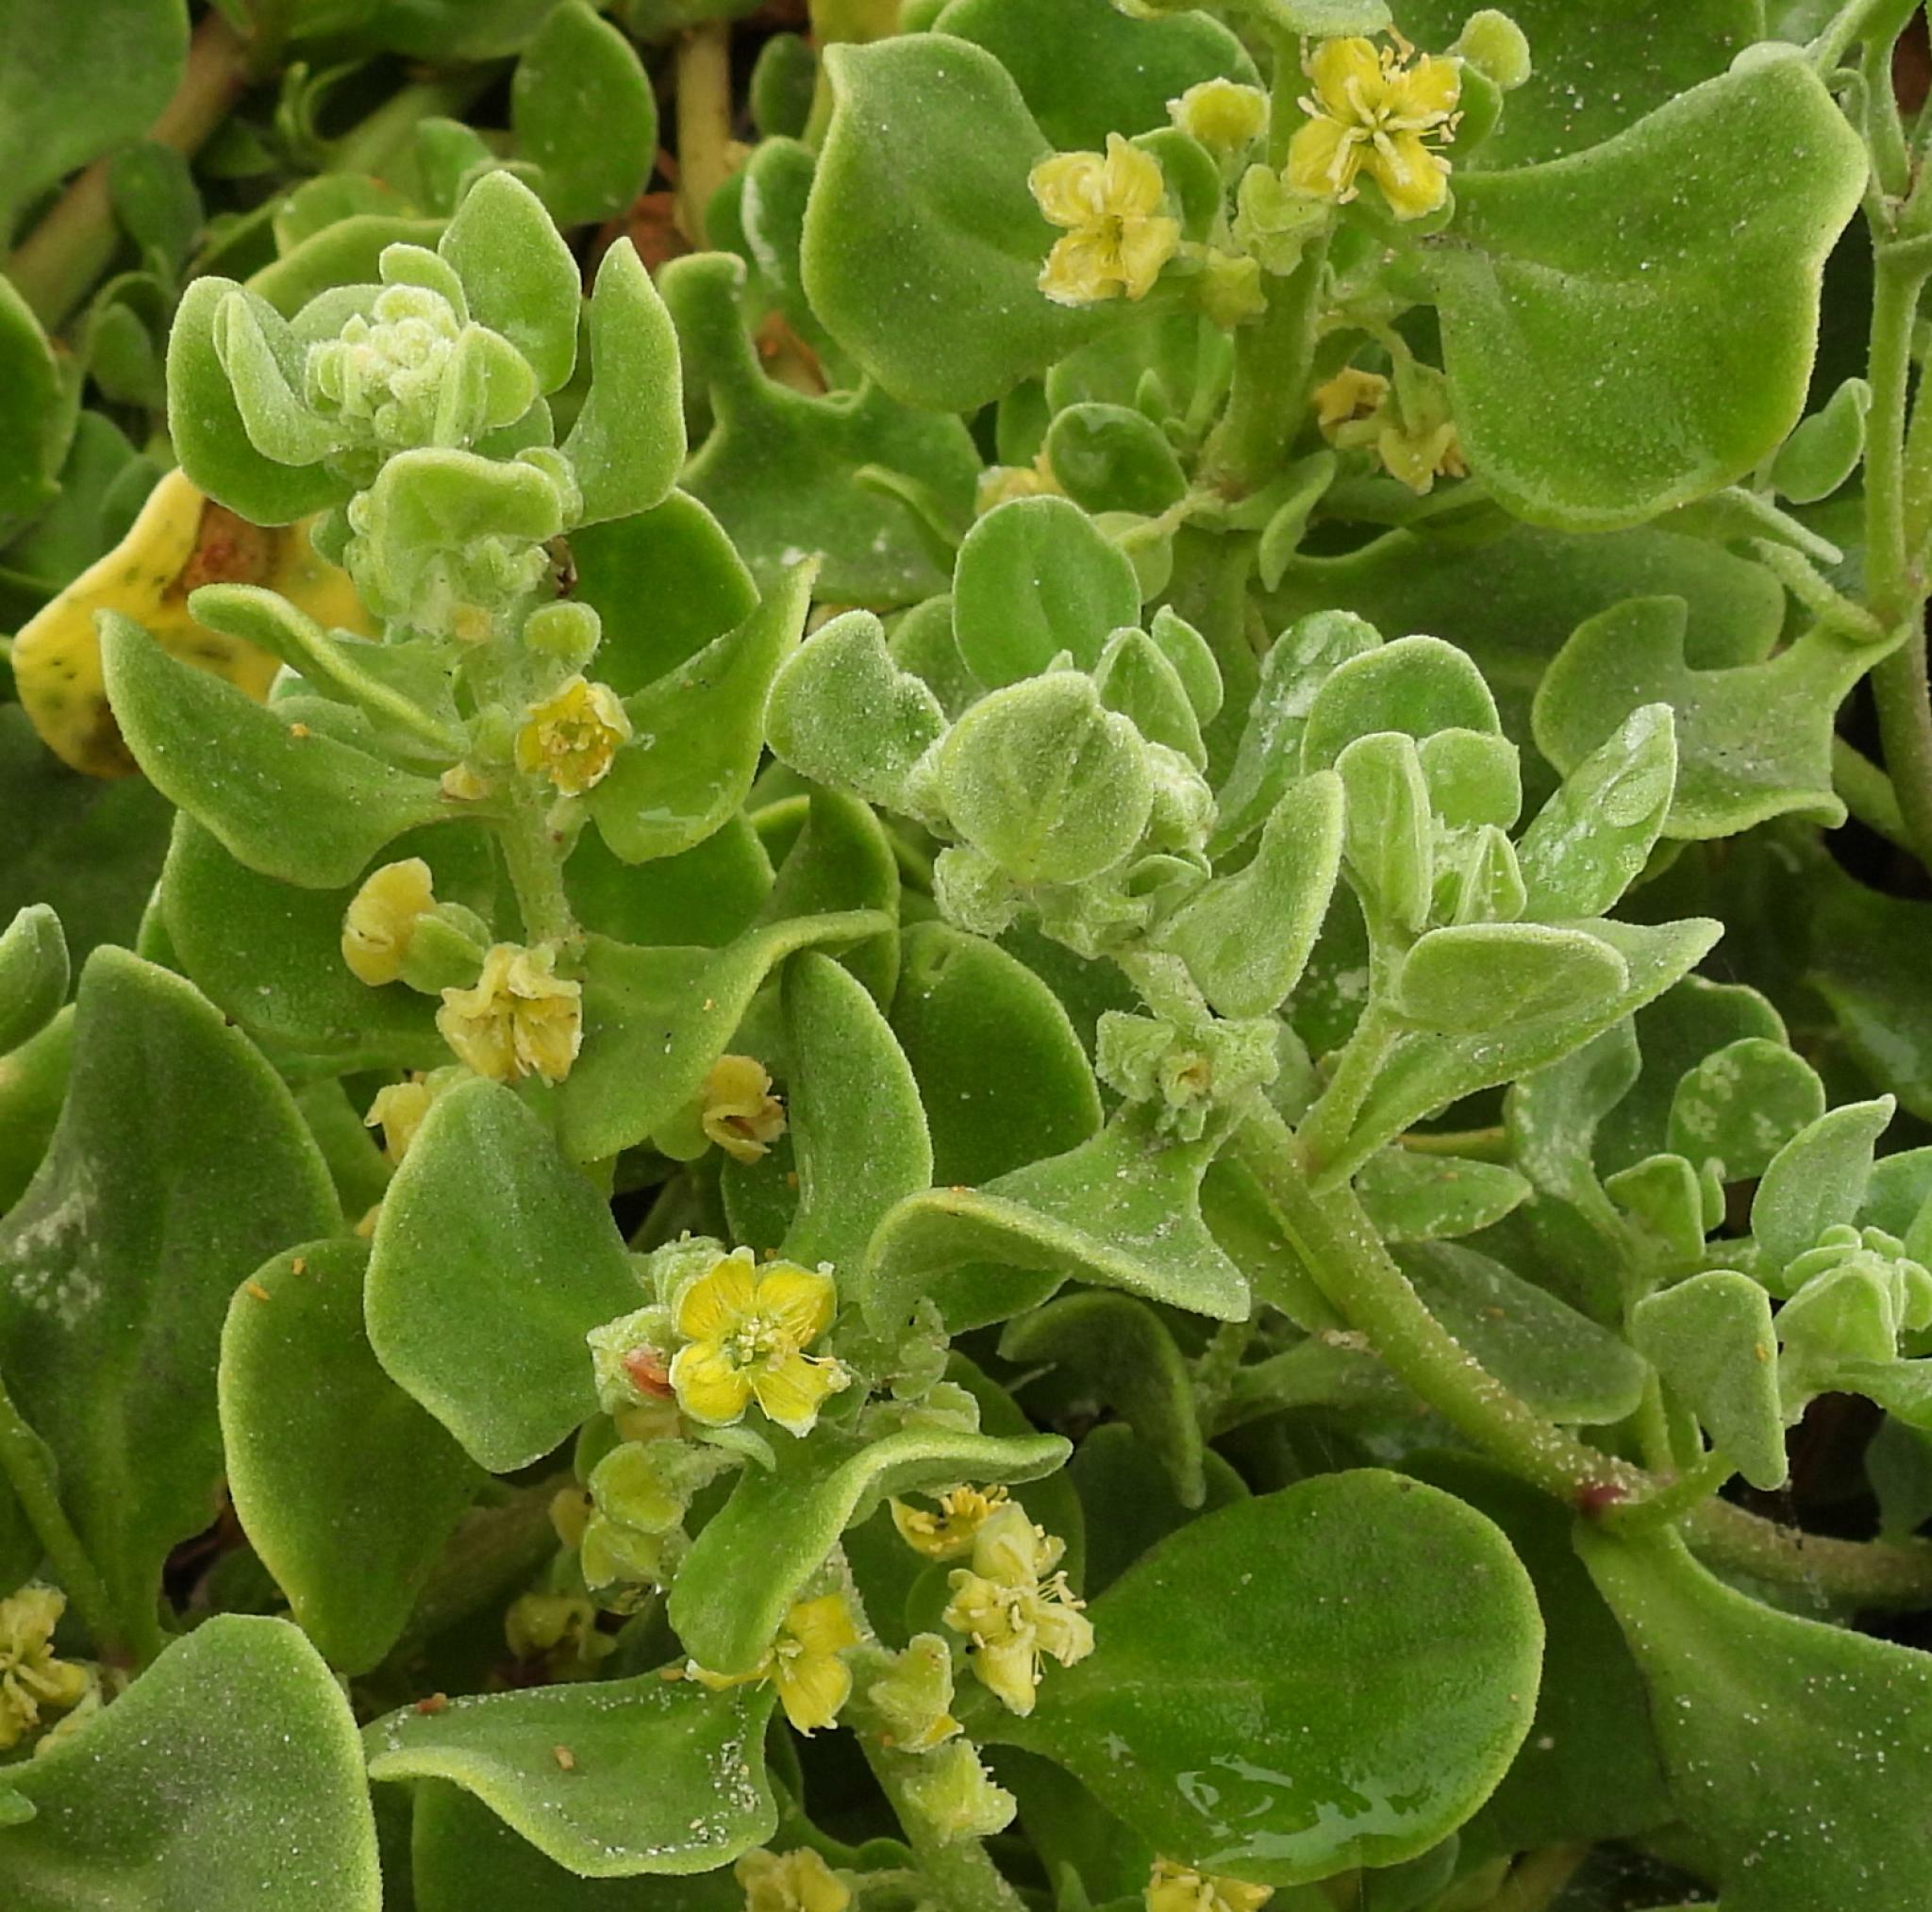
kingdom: Plantae
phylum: Tracheophyta
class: Magnoliopsida
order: Caryophyllales
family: Aizoaceae
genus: Tetragonia
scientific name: Tetragonia decumbens
